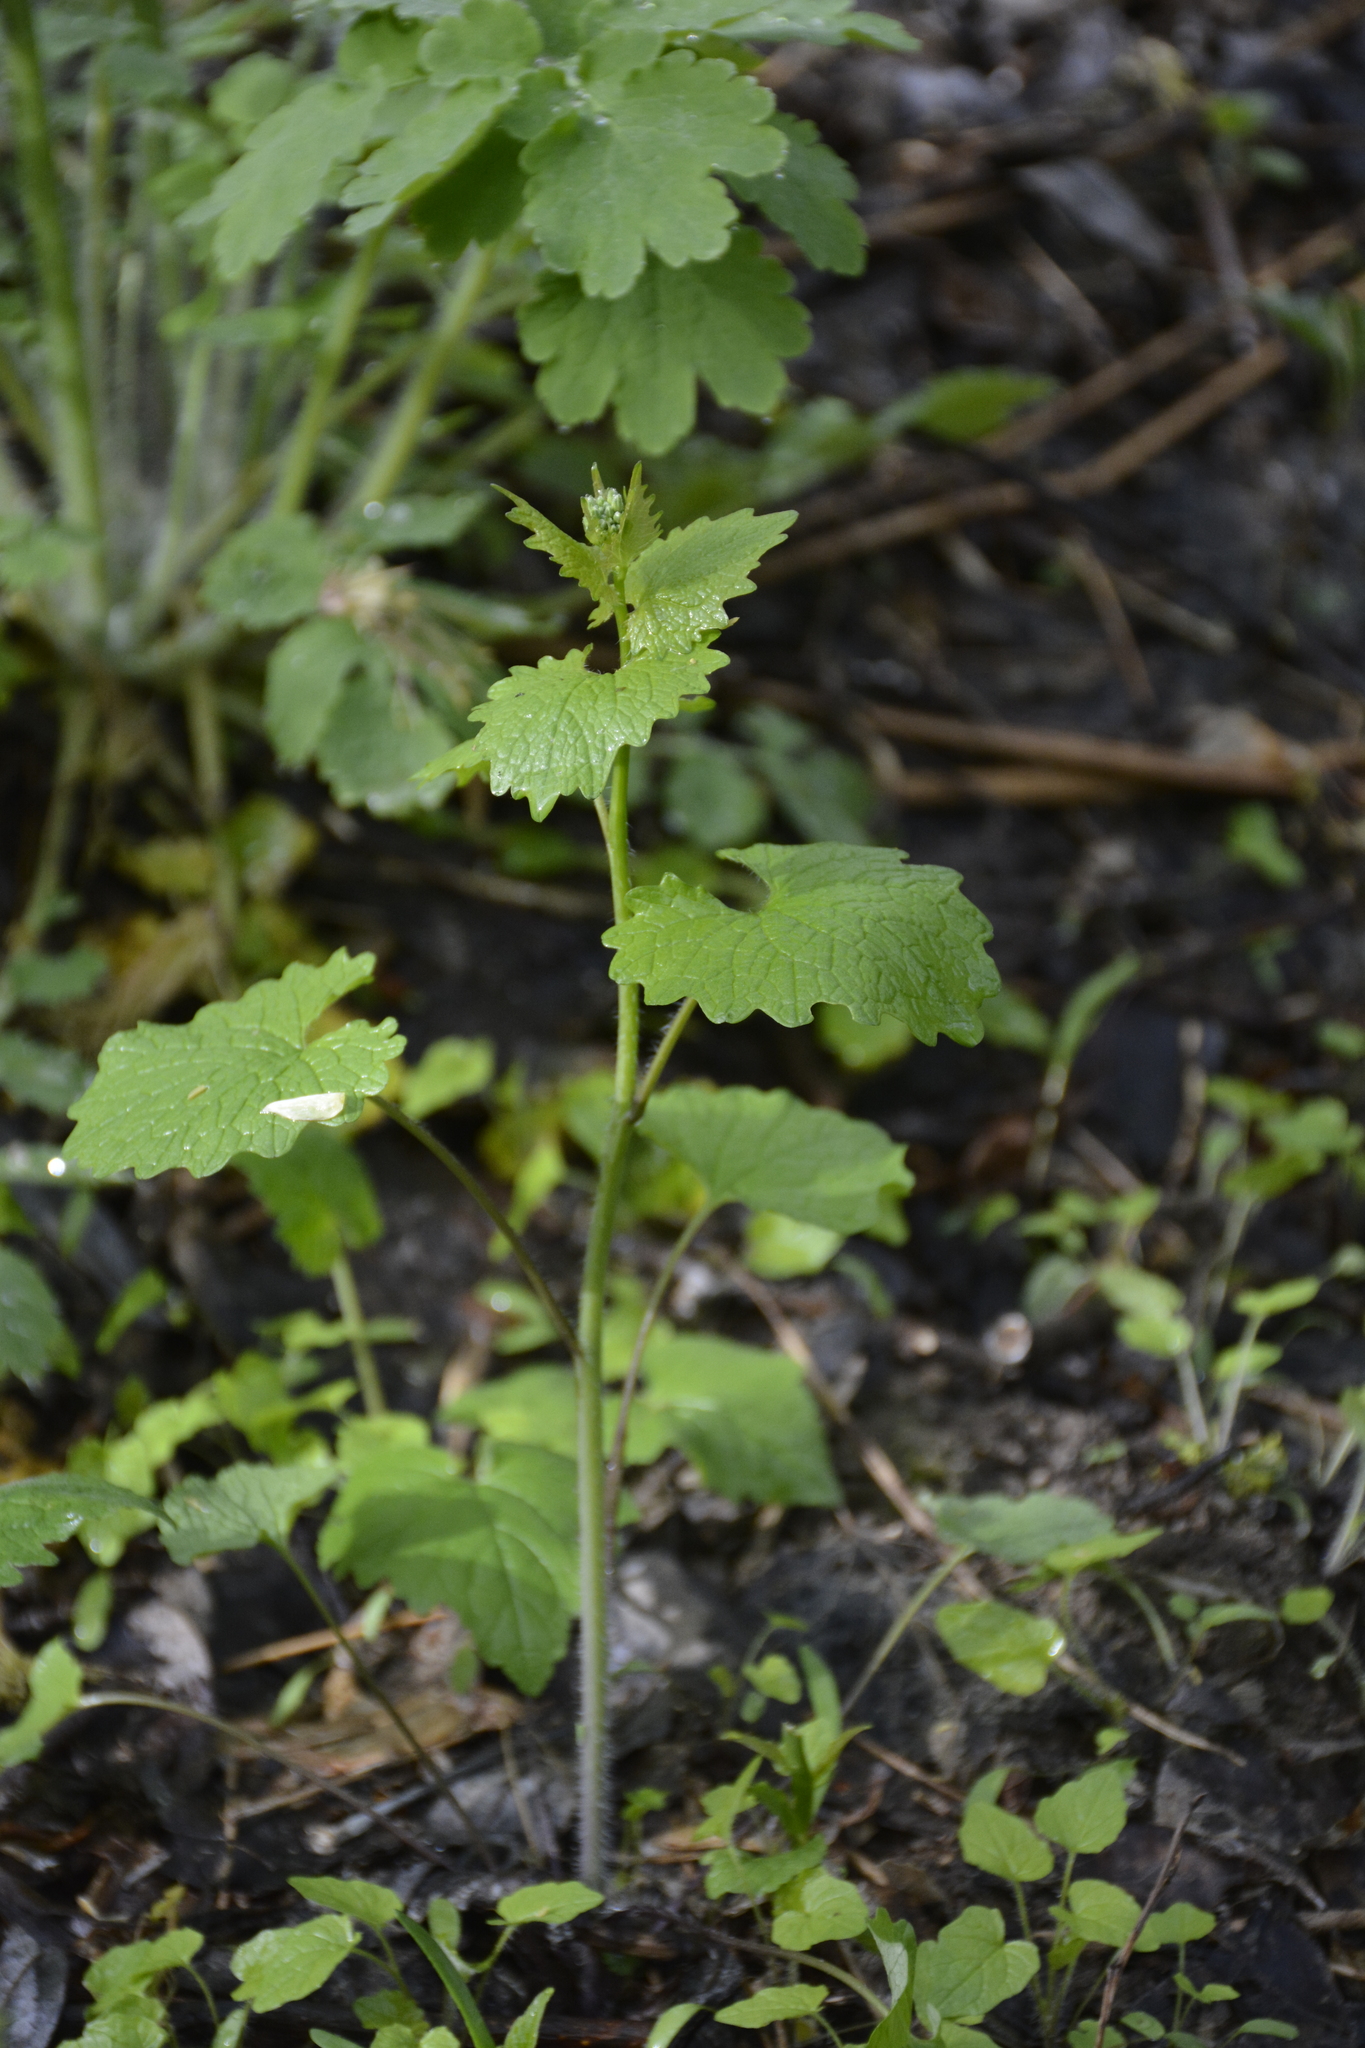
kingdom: Plantae
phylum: Tracheophyta
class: Magnoliopsida
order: Brassicales
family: Brassicaceae
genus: Alliaria
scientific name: Alliaria petiolata
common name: Garlic mustard
